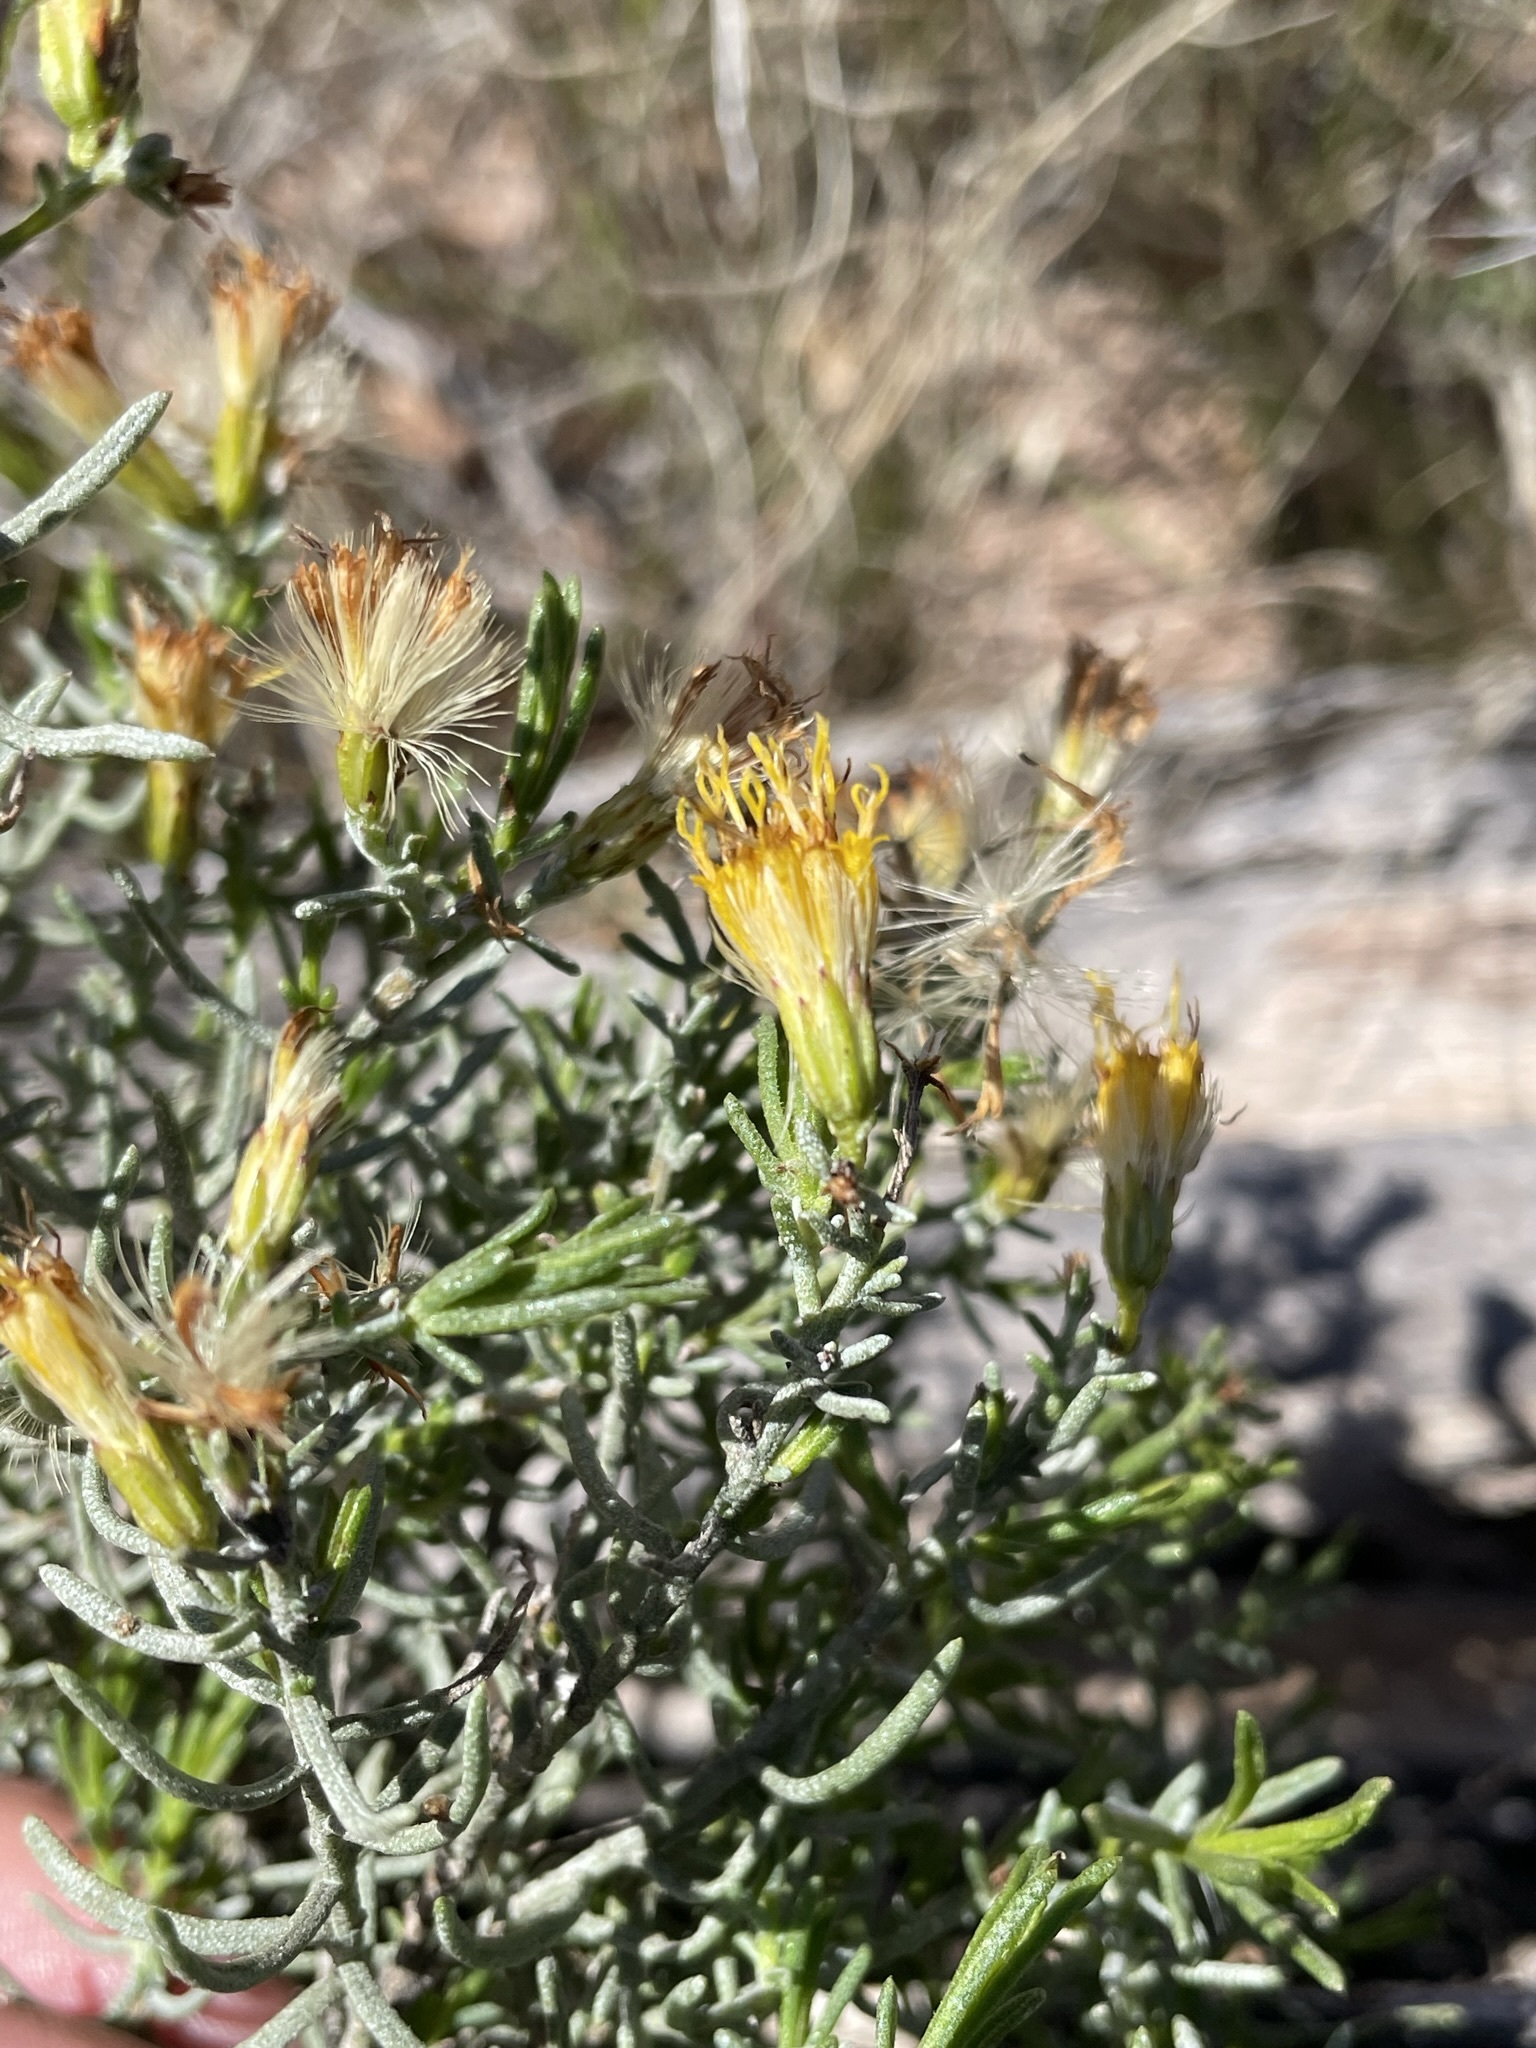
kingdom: Plantae
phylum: Tracheophyta
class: Magnoliopsida
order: Asterales
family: Asteraceae
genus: Ericameria
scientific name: Ericameria laricifolia
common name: Turpentine-bush
